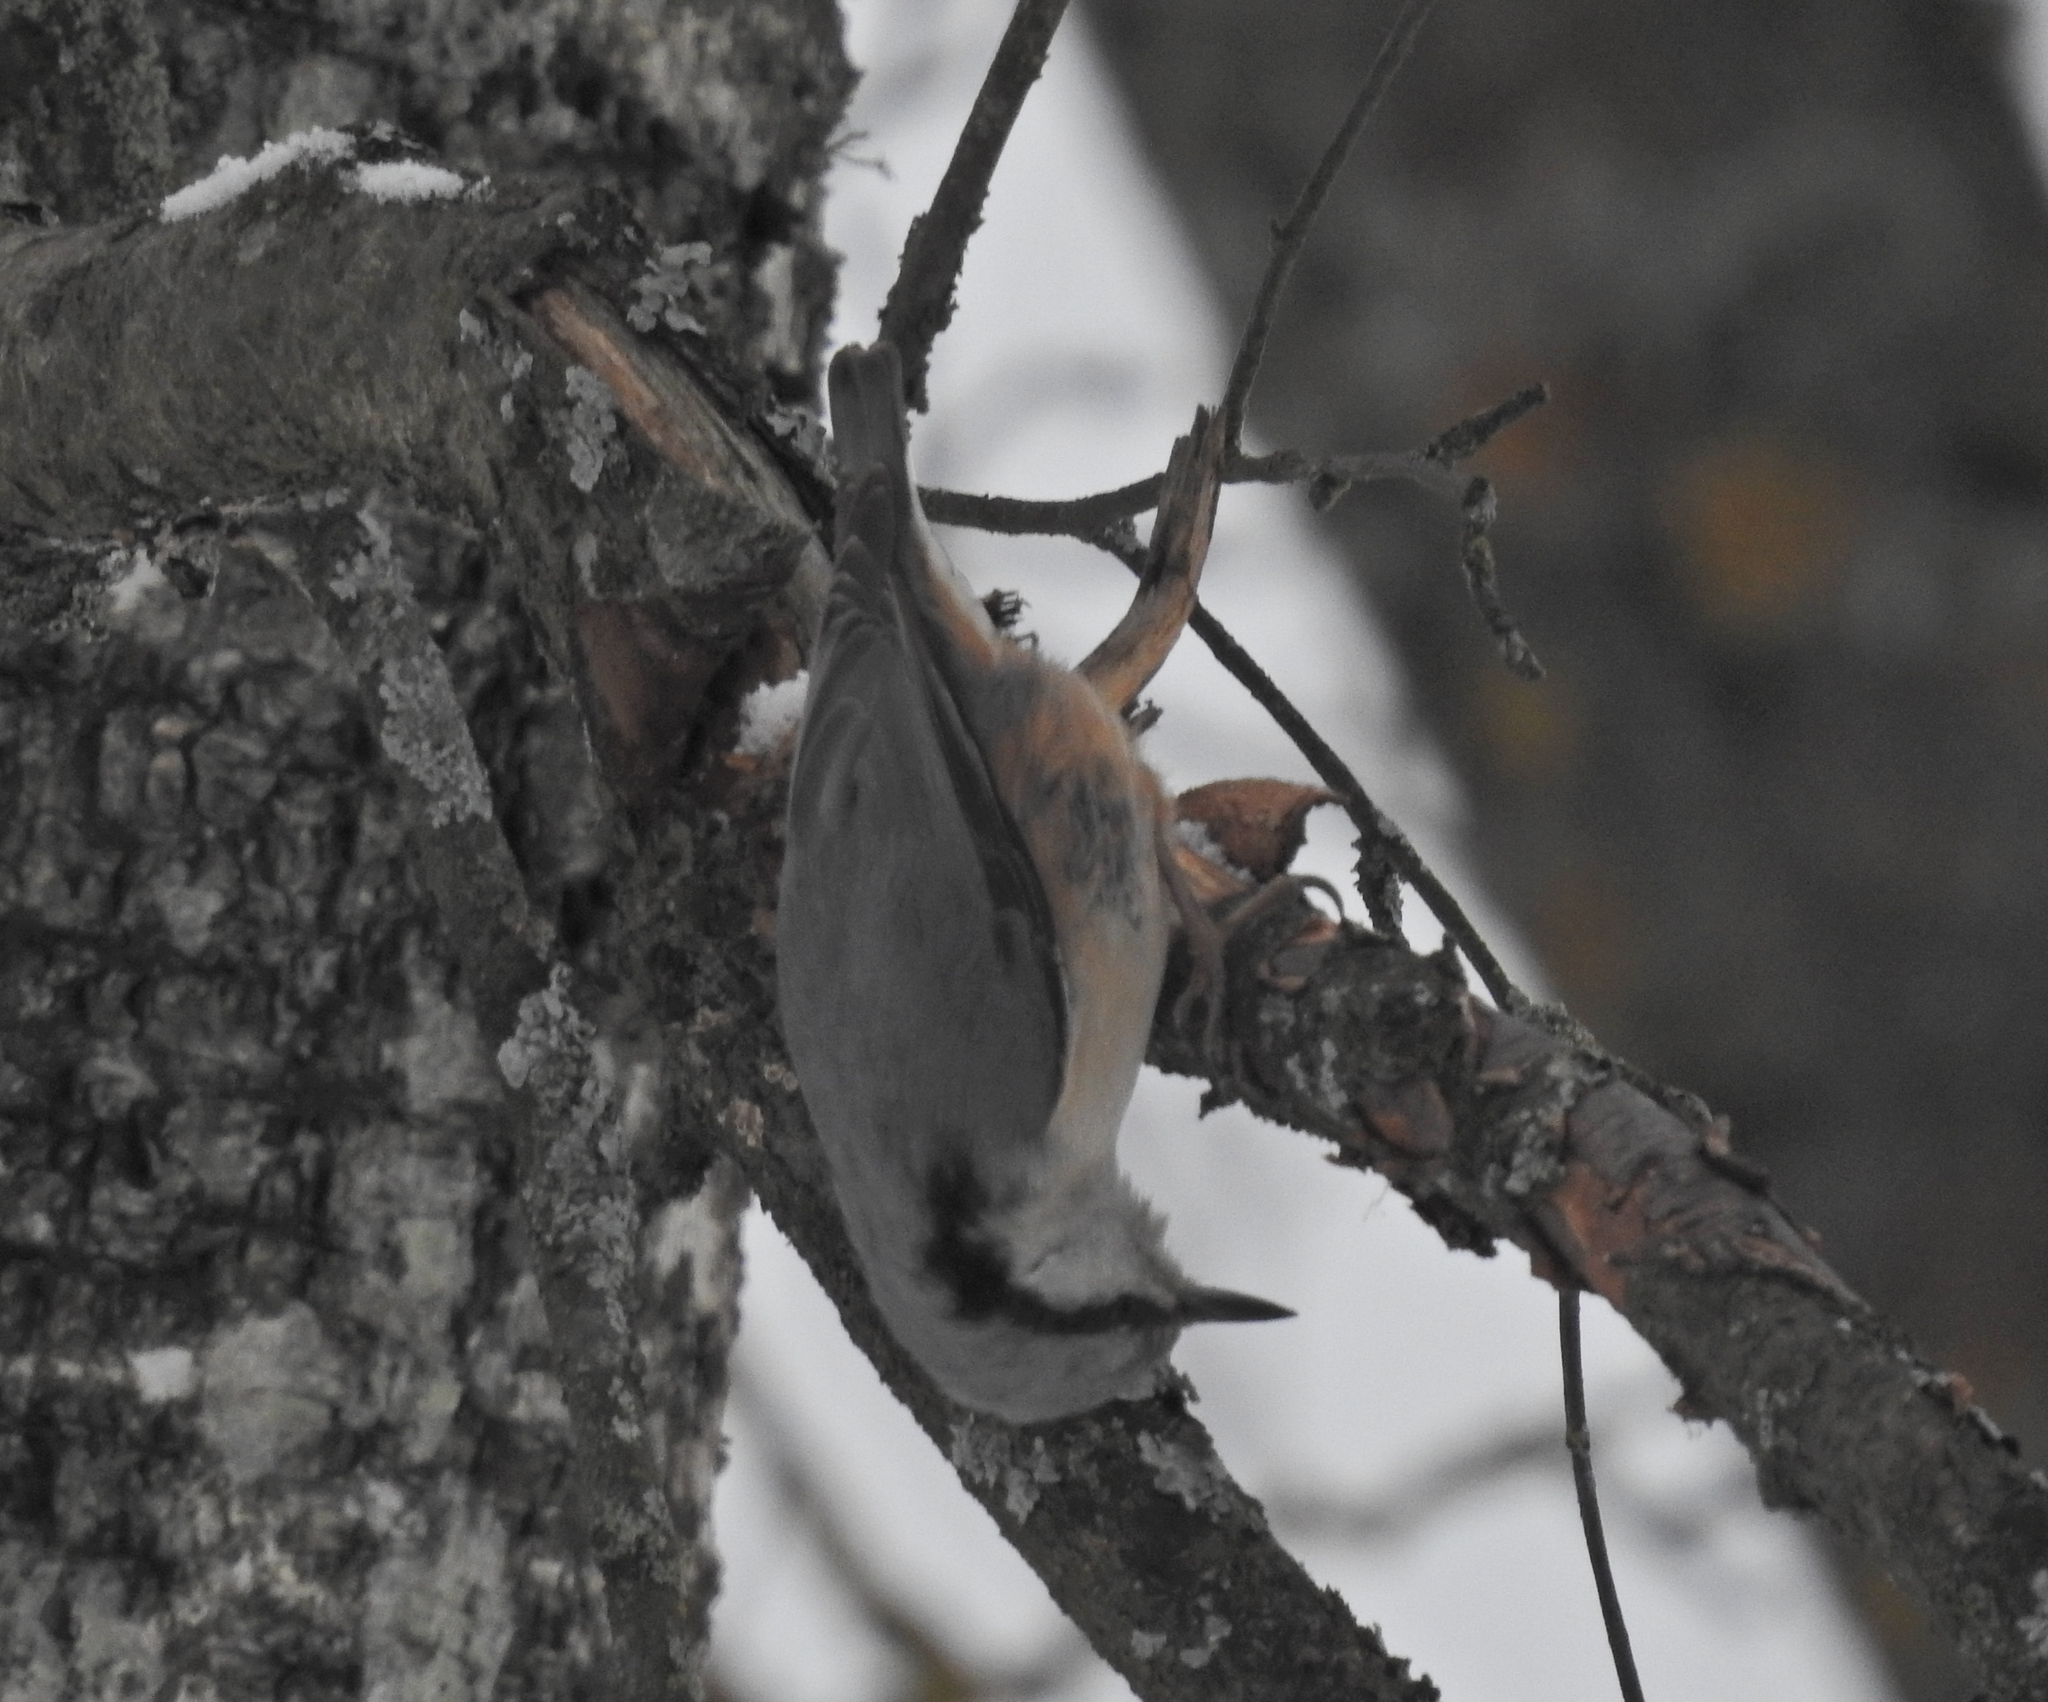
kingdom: Animalia
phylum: Chordata
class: Aves
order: Passeriformes
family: Sittidae
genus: Sitta
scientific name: Sitta europaea
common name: Eurasian nuthatch
